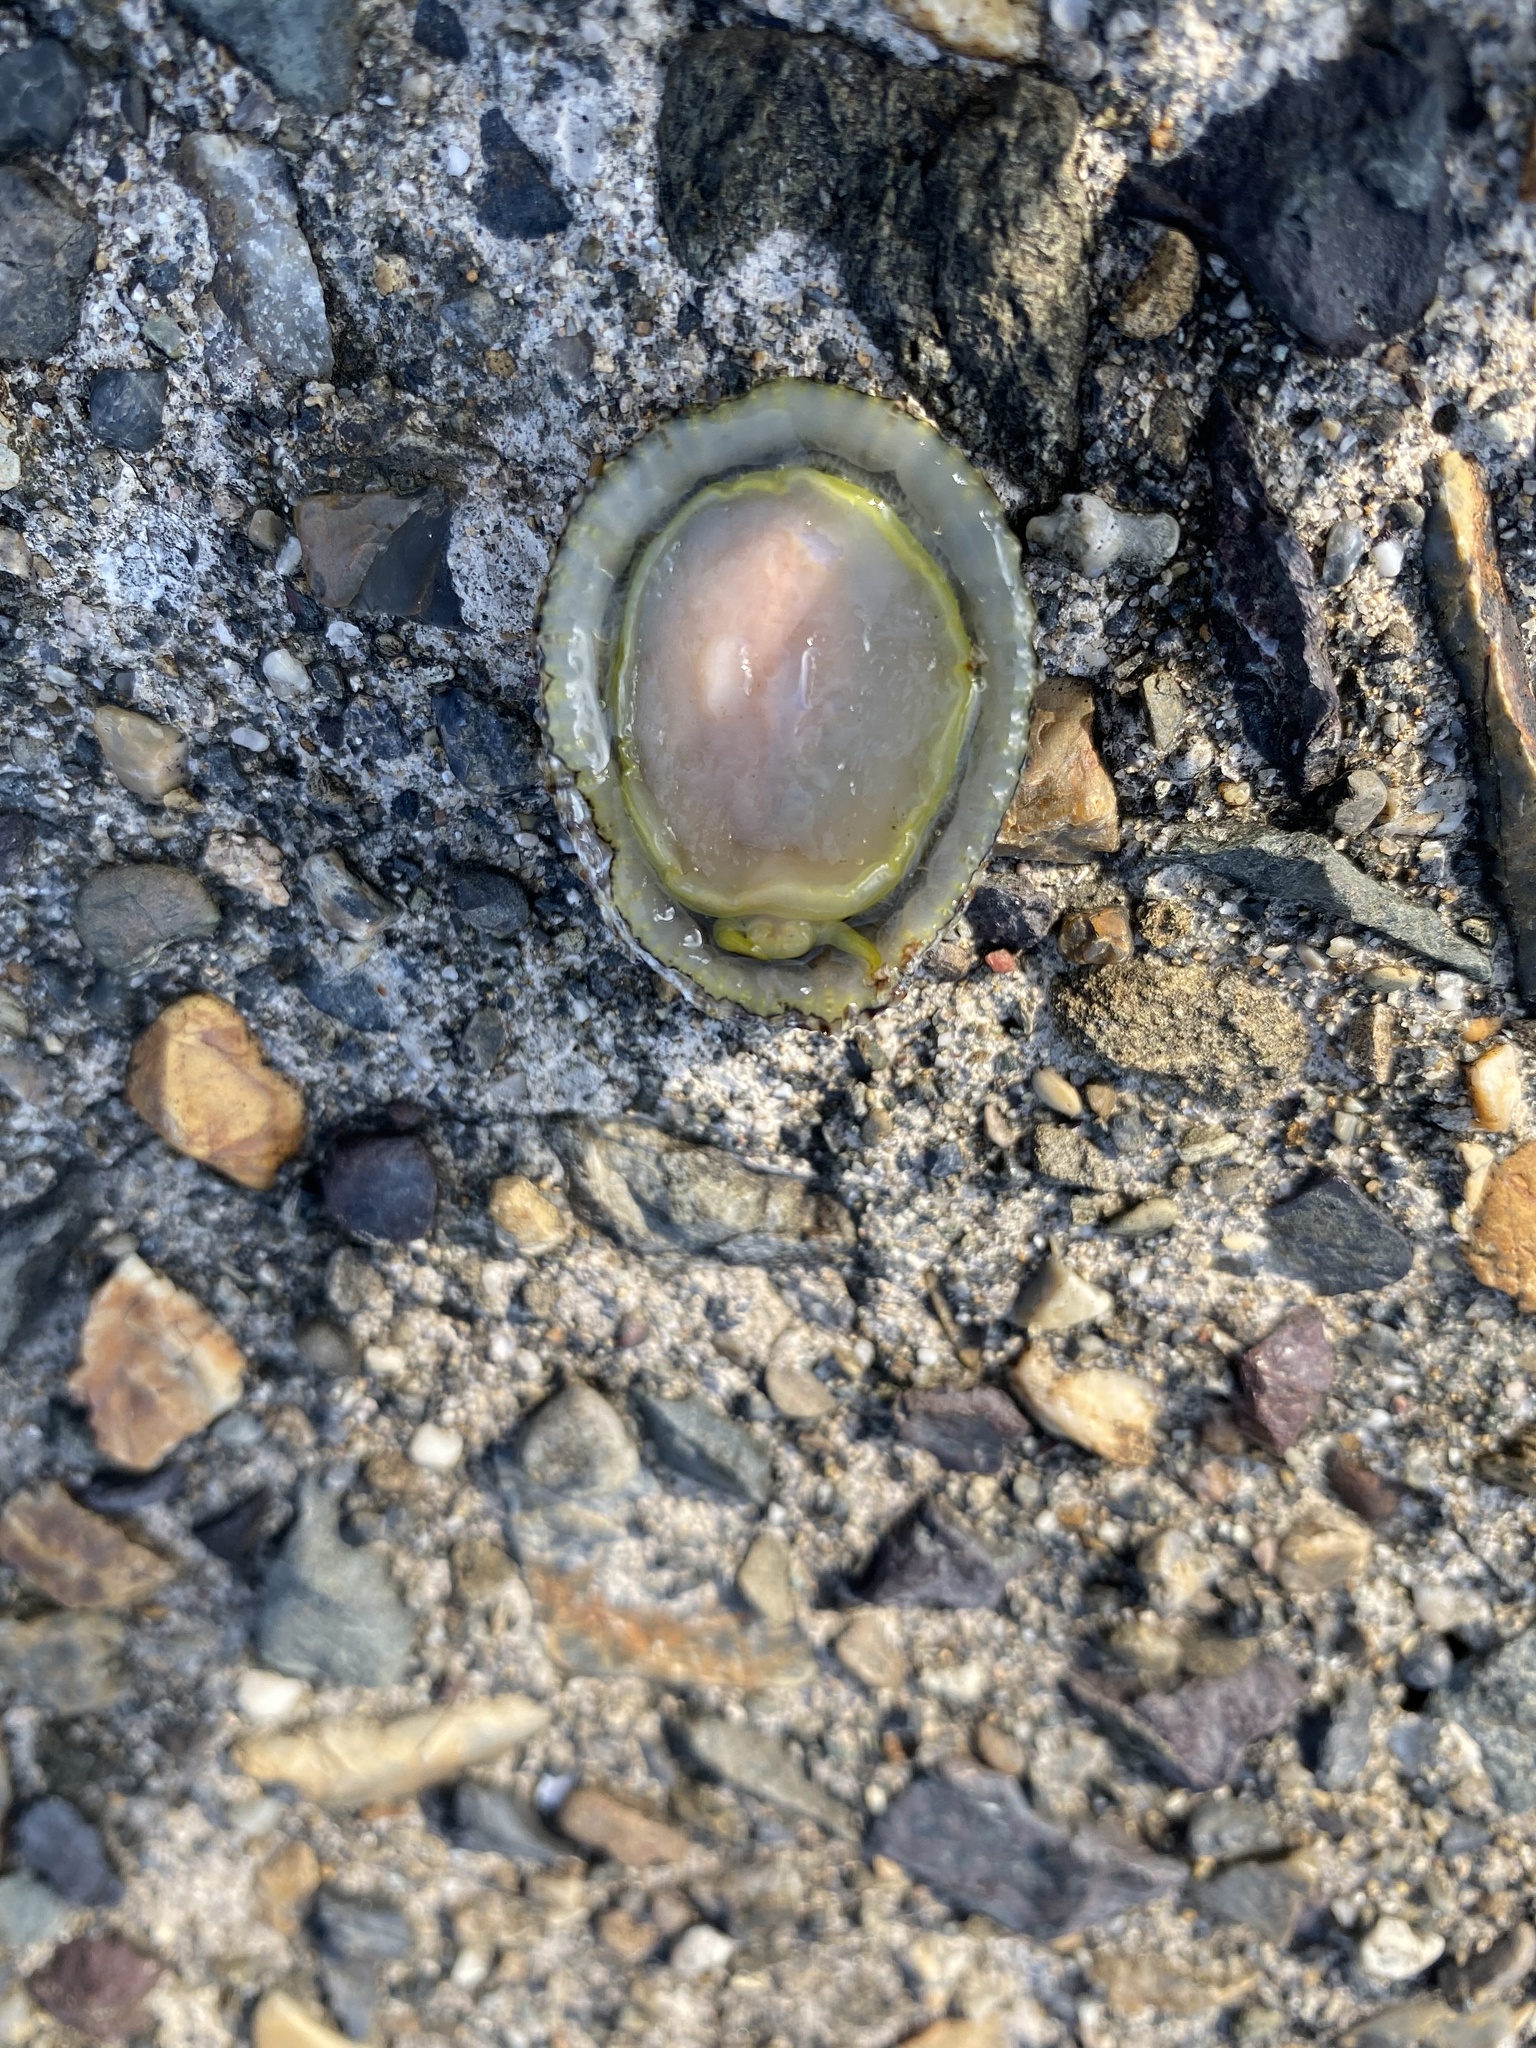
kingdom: Animalia
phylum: Mollusca
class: Gastropoda
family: Nacellidae
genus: Cellana
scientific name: Cellana grata
